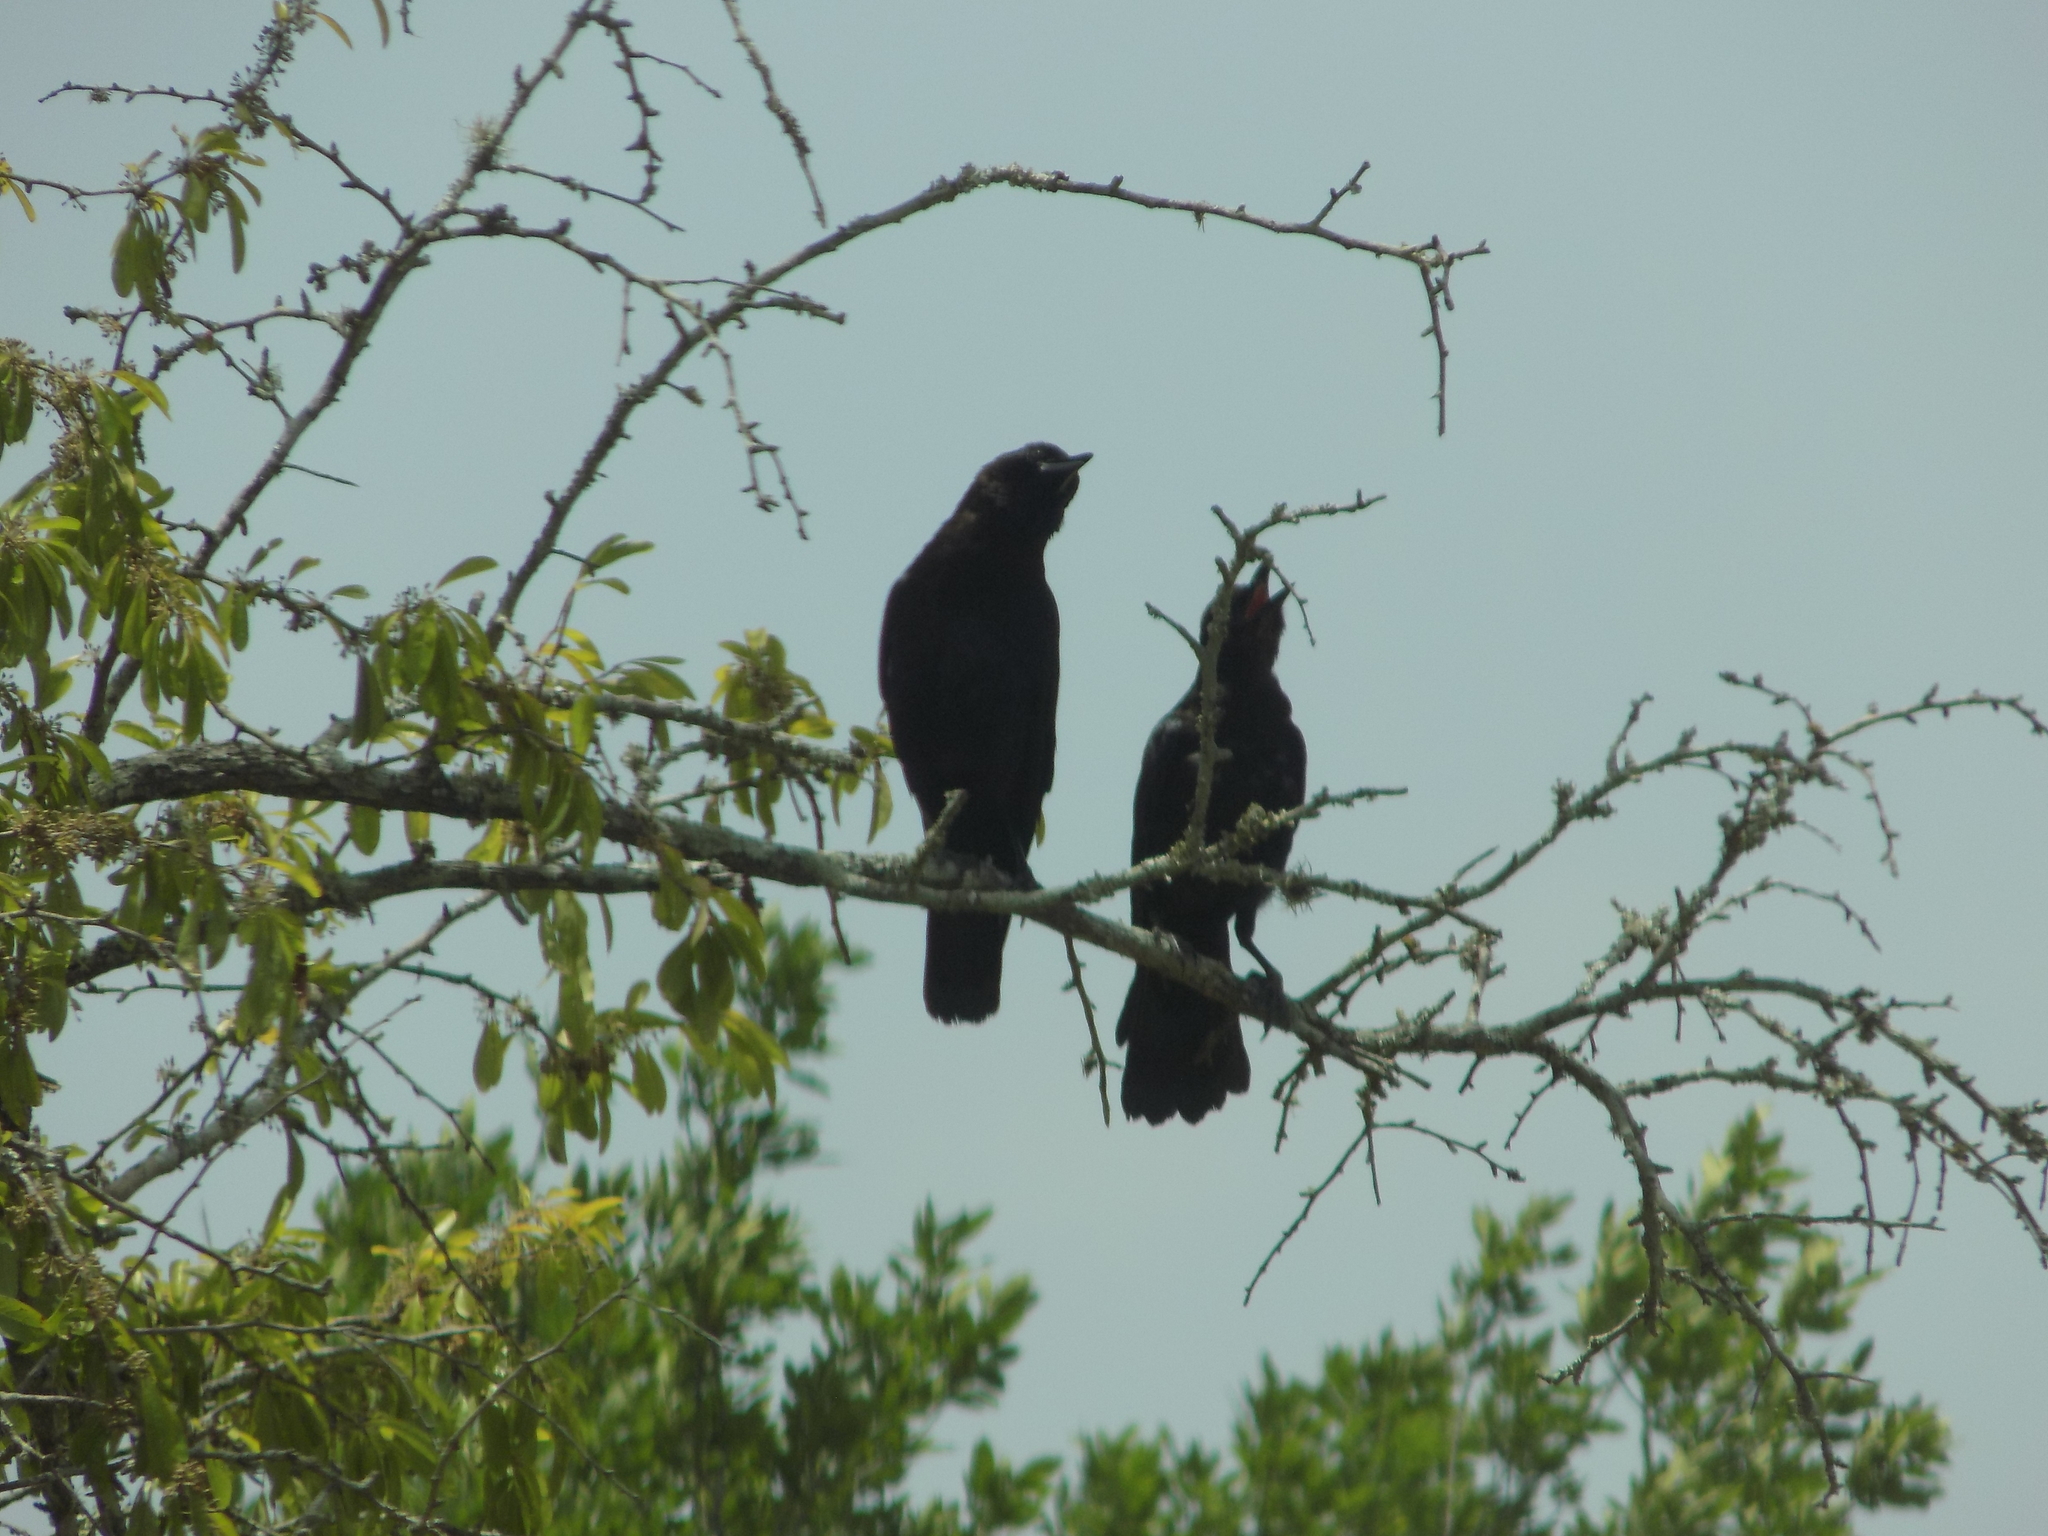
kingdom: Animalia
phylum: Chordata
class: Aves
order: Passeriformes
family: Corvidae
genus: Corvus
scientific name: Corvus brachyrhynchos
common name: American crow
